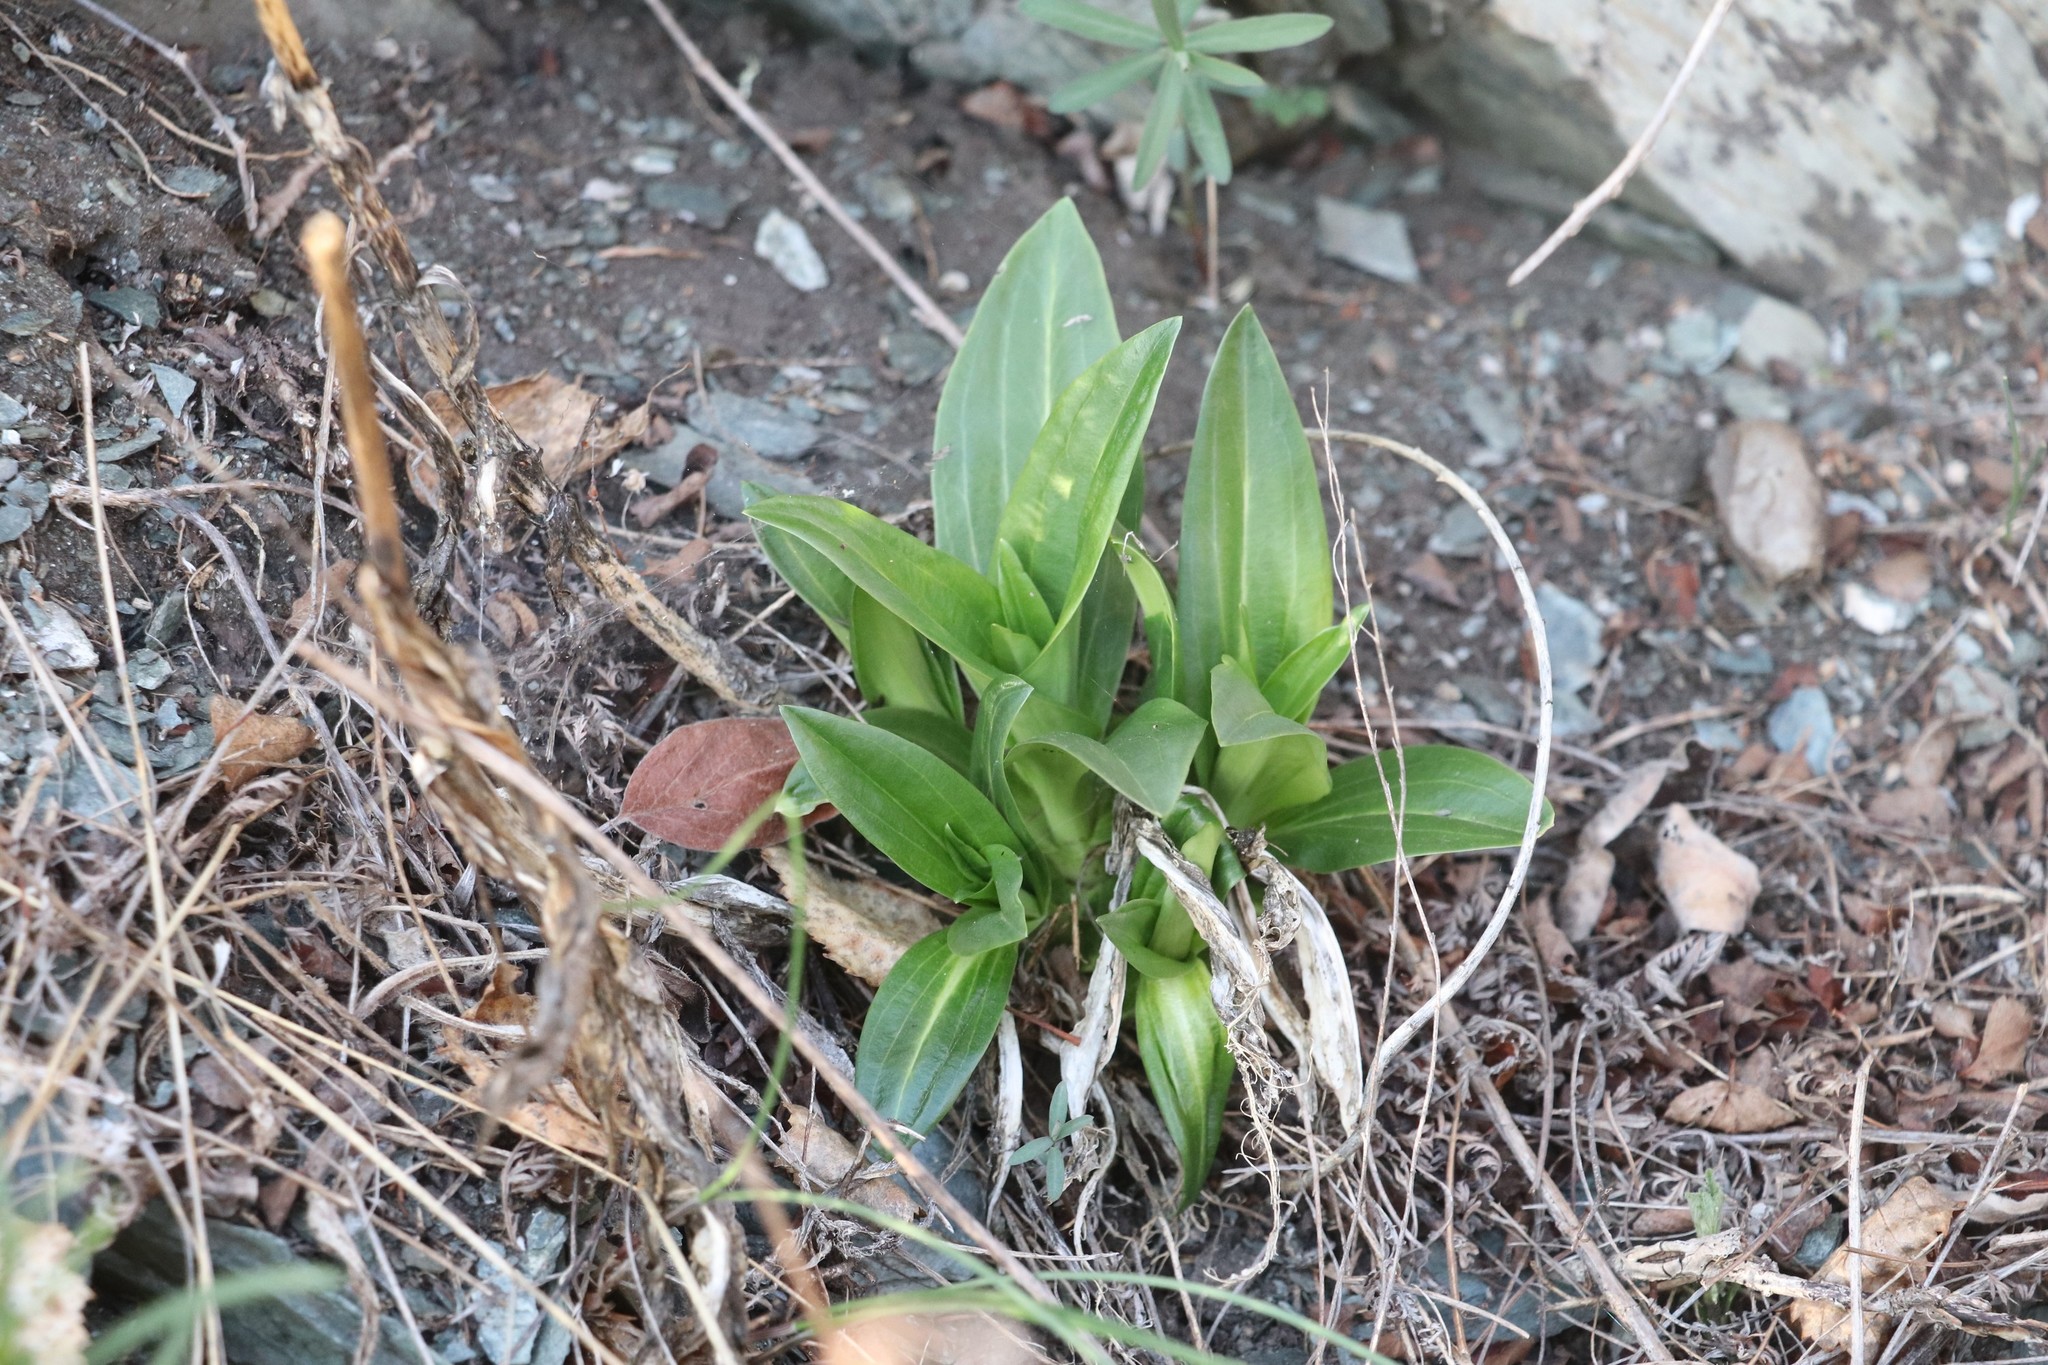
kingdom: Plantae
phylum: Tracheophyta
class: Magnoliopsida
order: Gentianales
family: Gentianaceae
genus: Gentiana
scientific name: Gentiana macrophylla
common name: Large-leaf gentian
